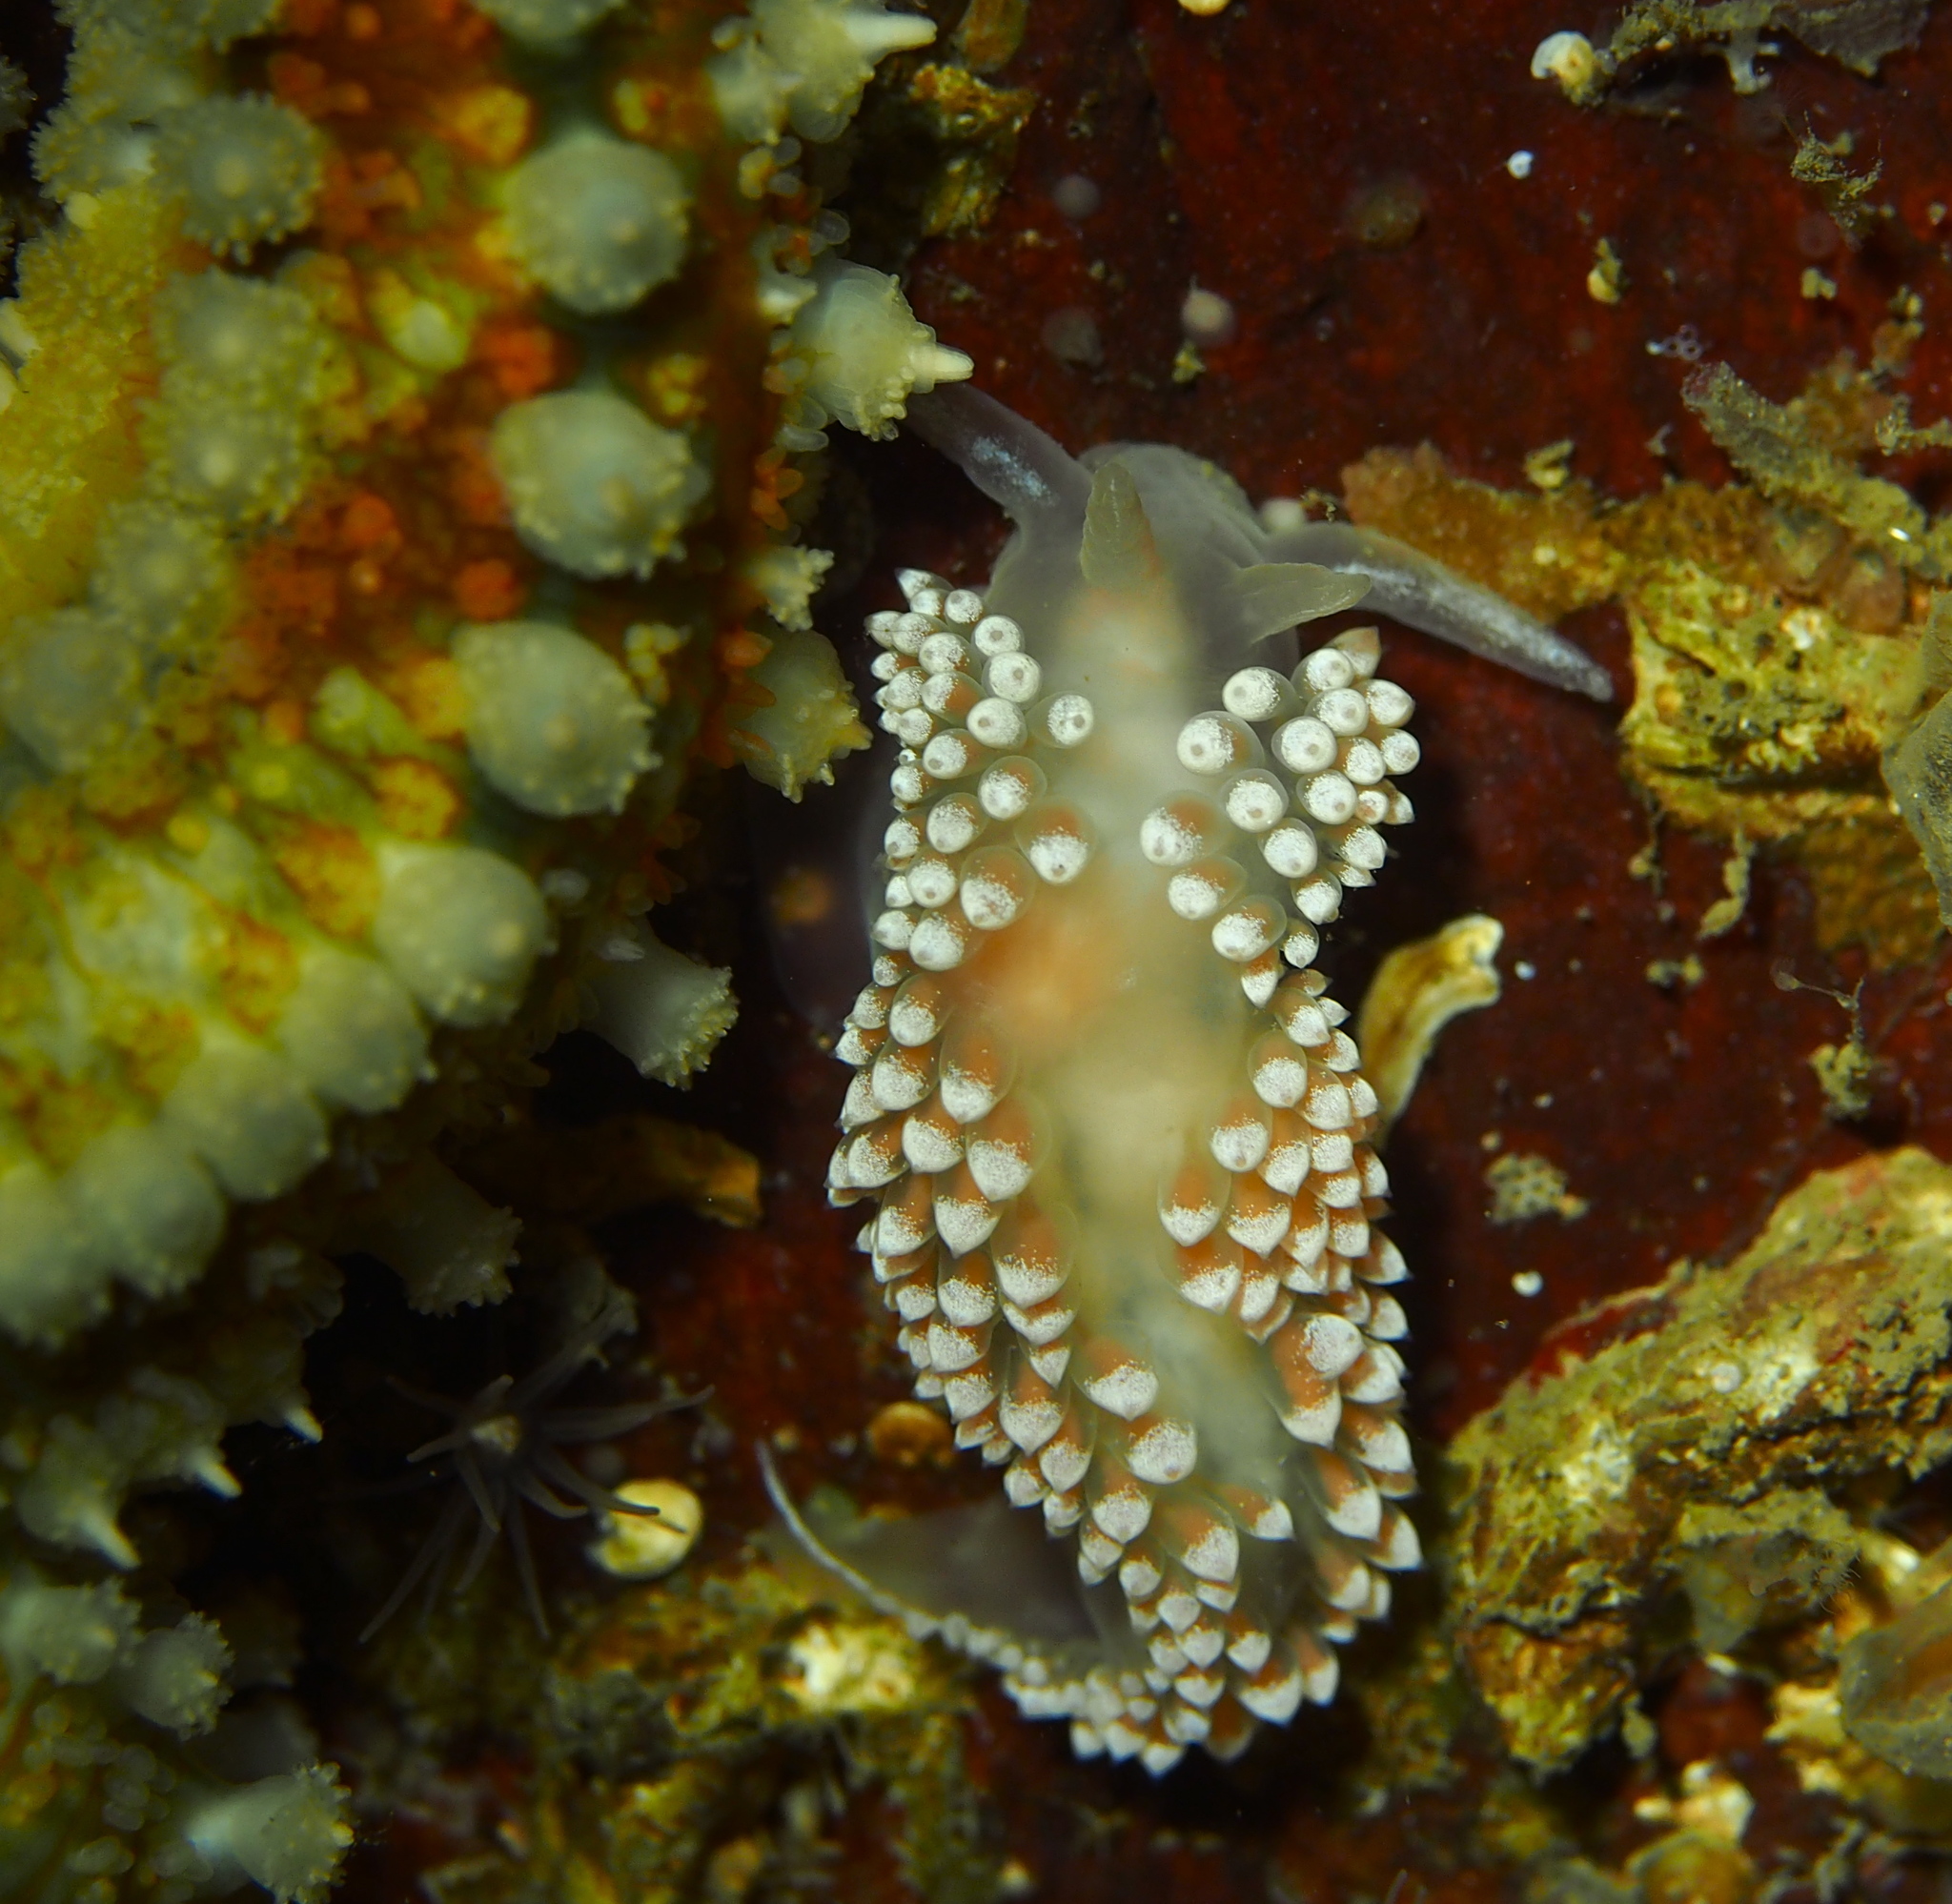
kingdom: Animalia
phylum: Mollusca
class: Gastropoda
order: Nudibranchia
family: Coryphellidae
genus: Coryphella
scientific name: Coryphella verrucosa
